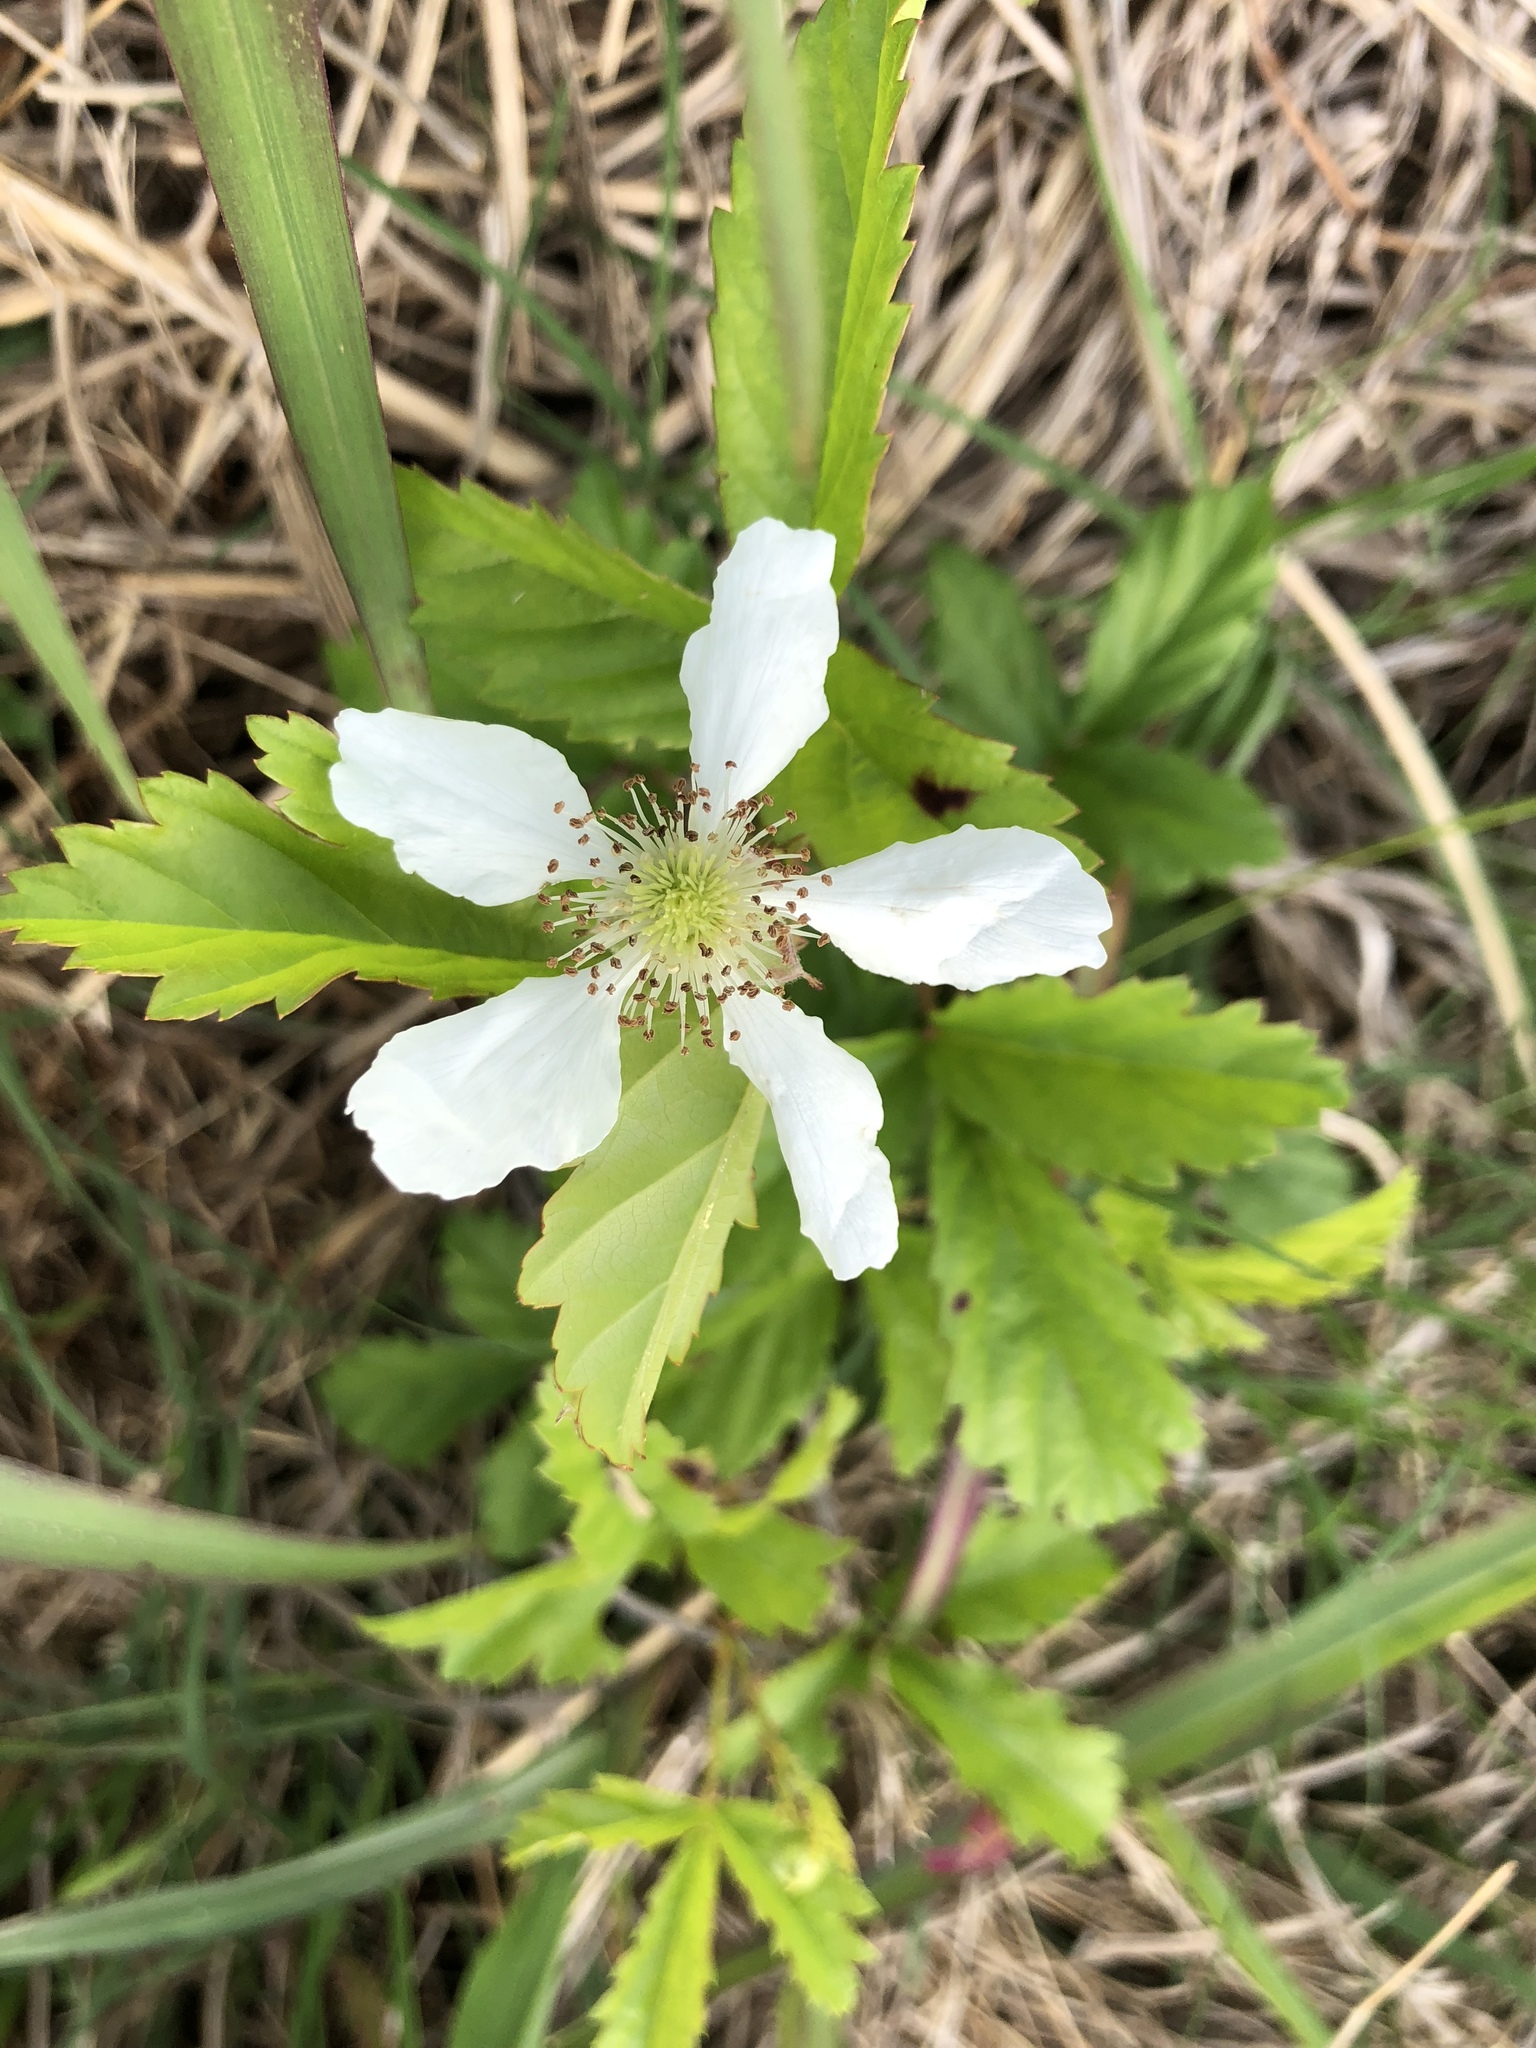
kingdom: Plantae
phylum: Tracheophyta
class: Magnoliopsida
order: Rosales
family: Rosaceae
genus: Rubus
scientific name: Rubus trivialis
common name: Southern dewberry
